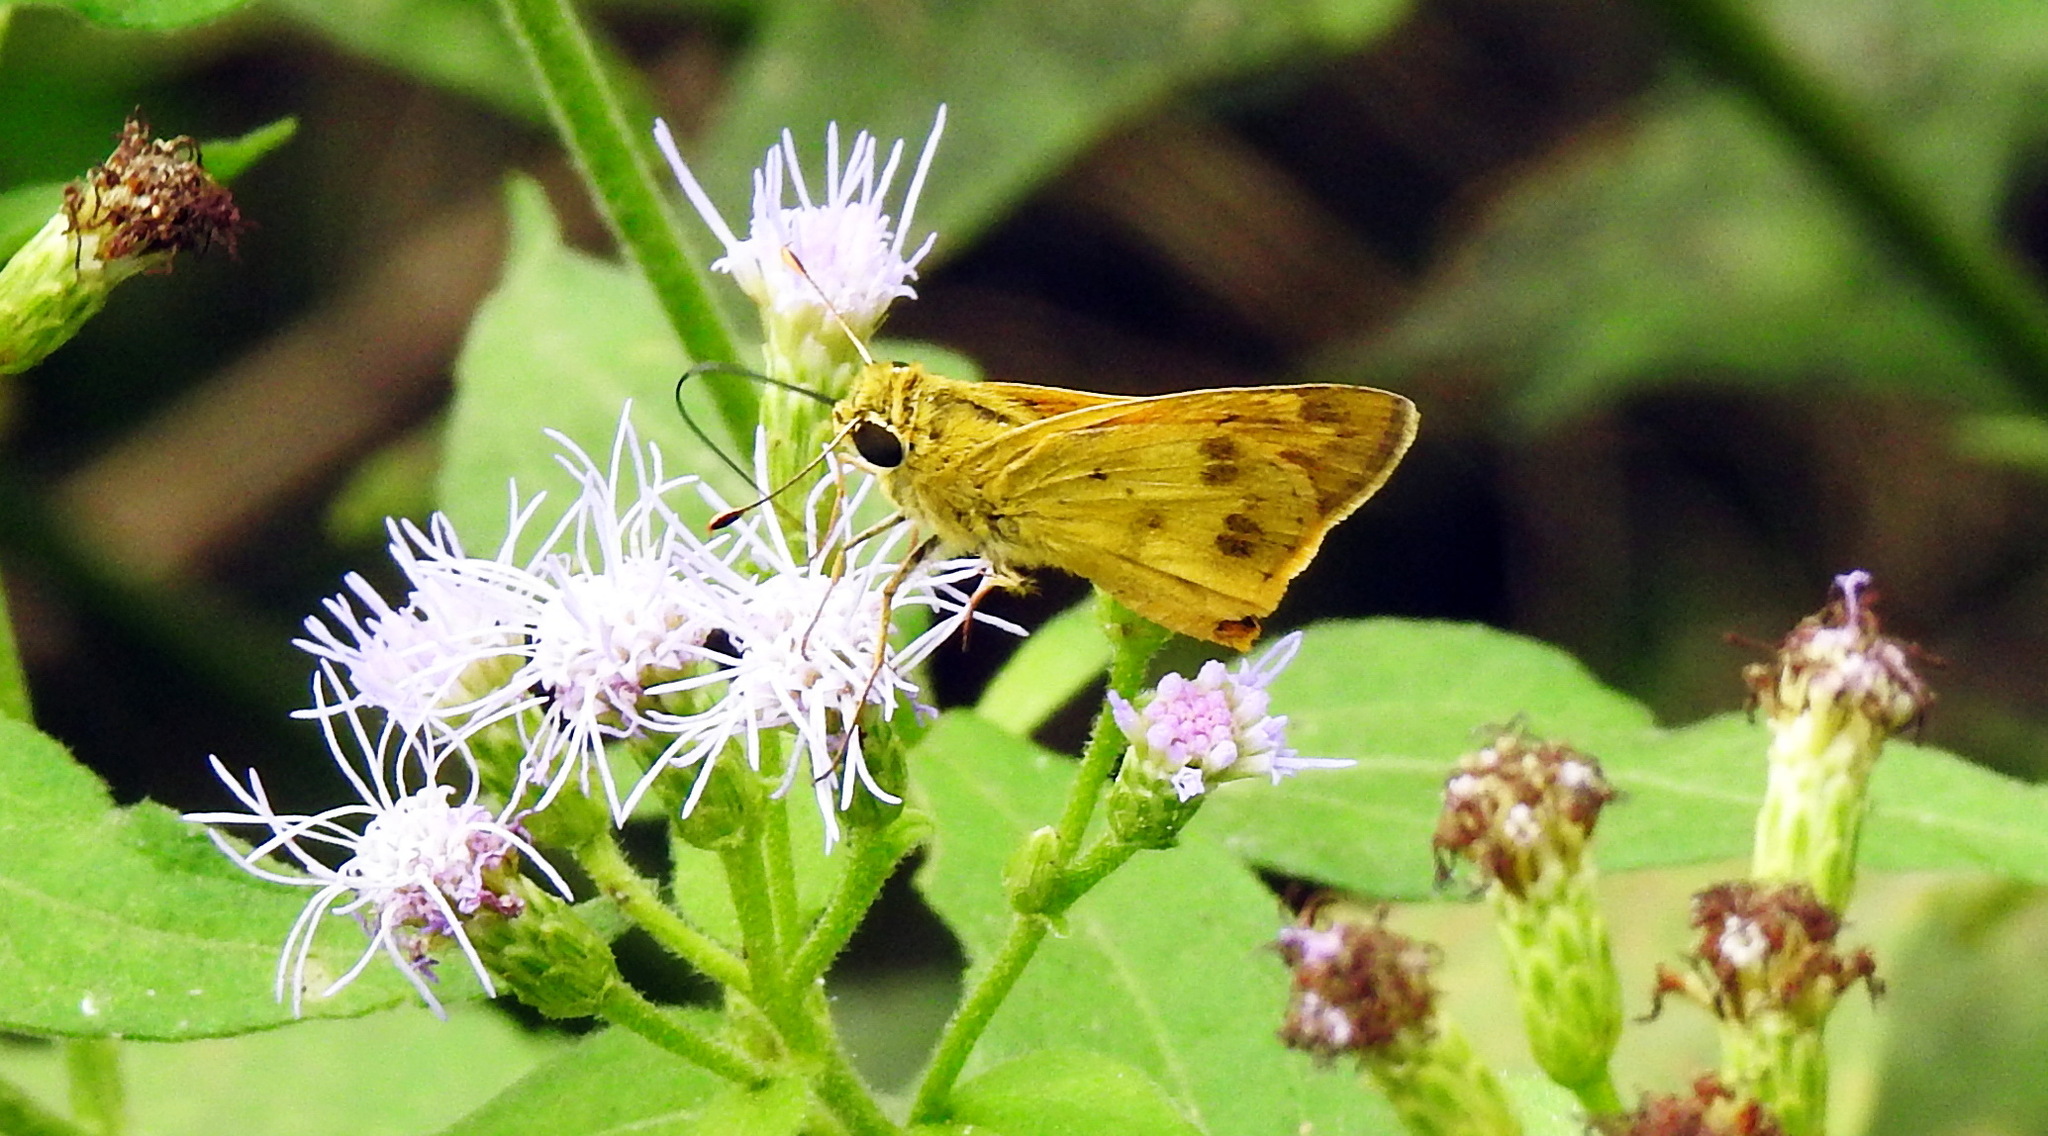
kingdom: Animalia
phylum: Arthropoda
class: Insecta
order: Lepidoptera
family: Hesperiidae
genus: Polites
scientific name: Polites vibex
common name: Whirlabout
